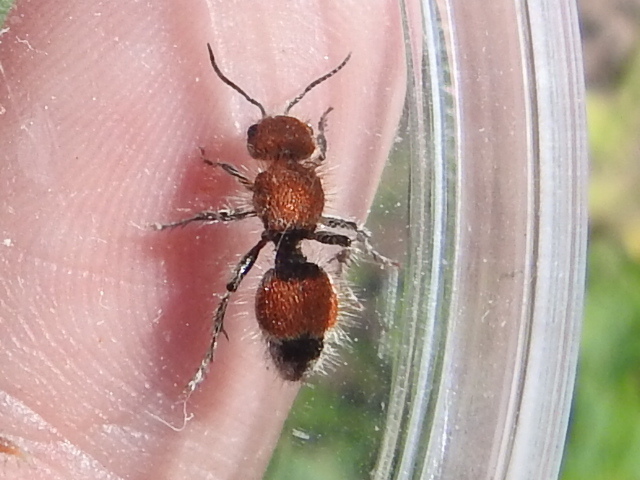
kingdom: Animalia
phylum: Arthropoda
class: Insecta
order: Hymenoptera
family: Mutillidae
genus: Dasymutilla
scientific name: Dasymutilla foxi
